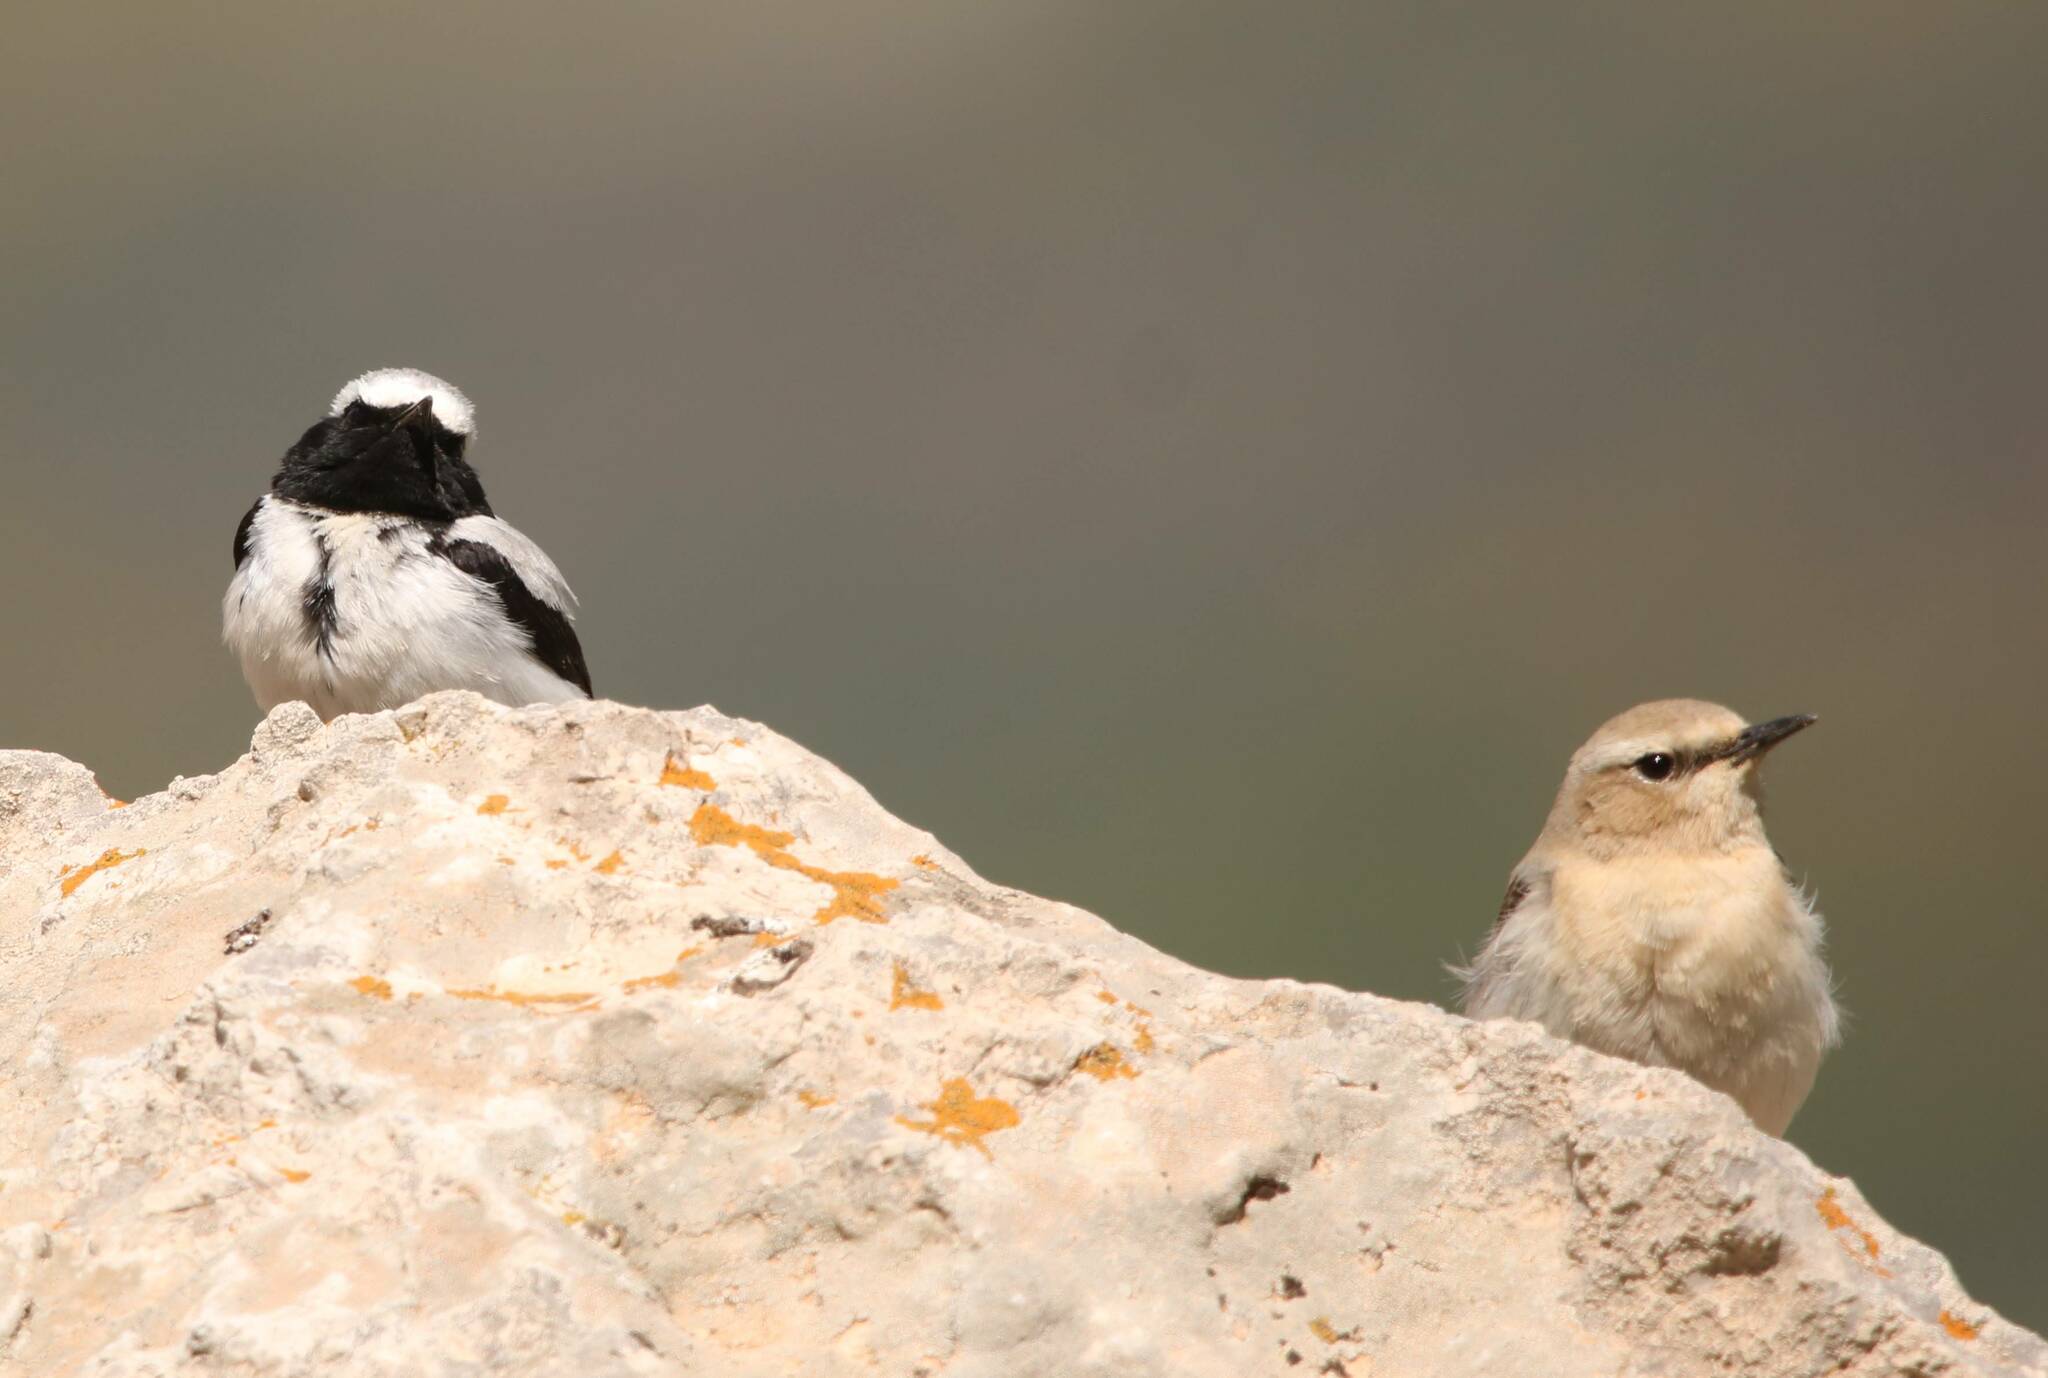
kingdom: Animalia
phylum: Chordata
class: Aves
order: Passeriformes
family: Muscicapidae
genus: Oenanthe
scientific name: Oenanthe oenanthe
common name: Northern wheatear
